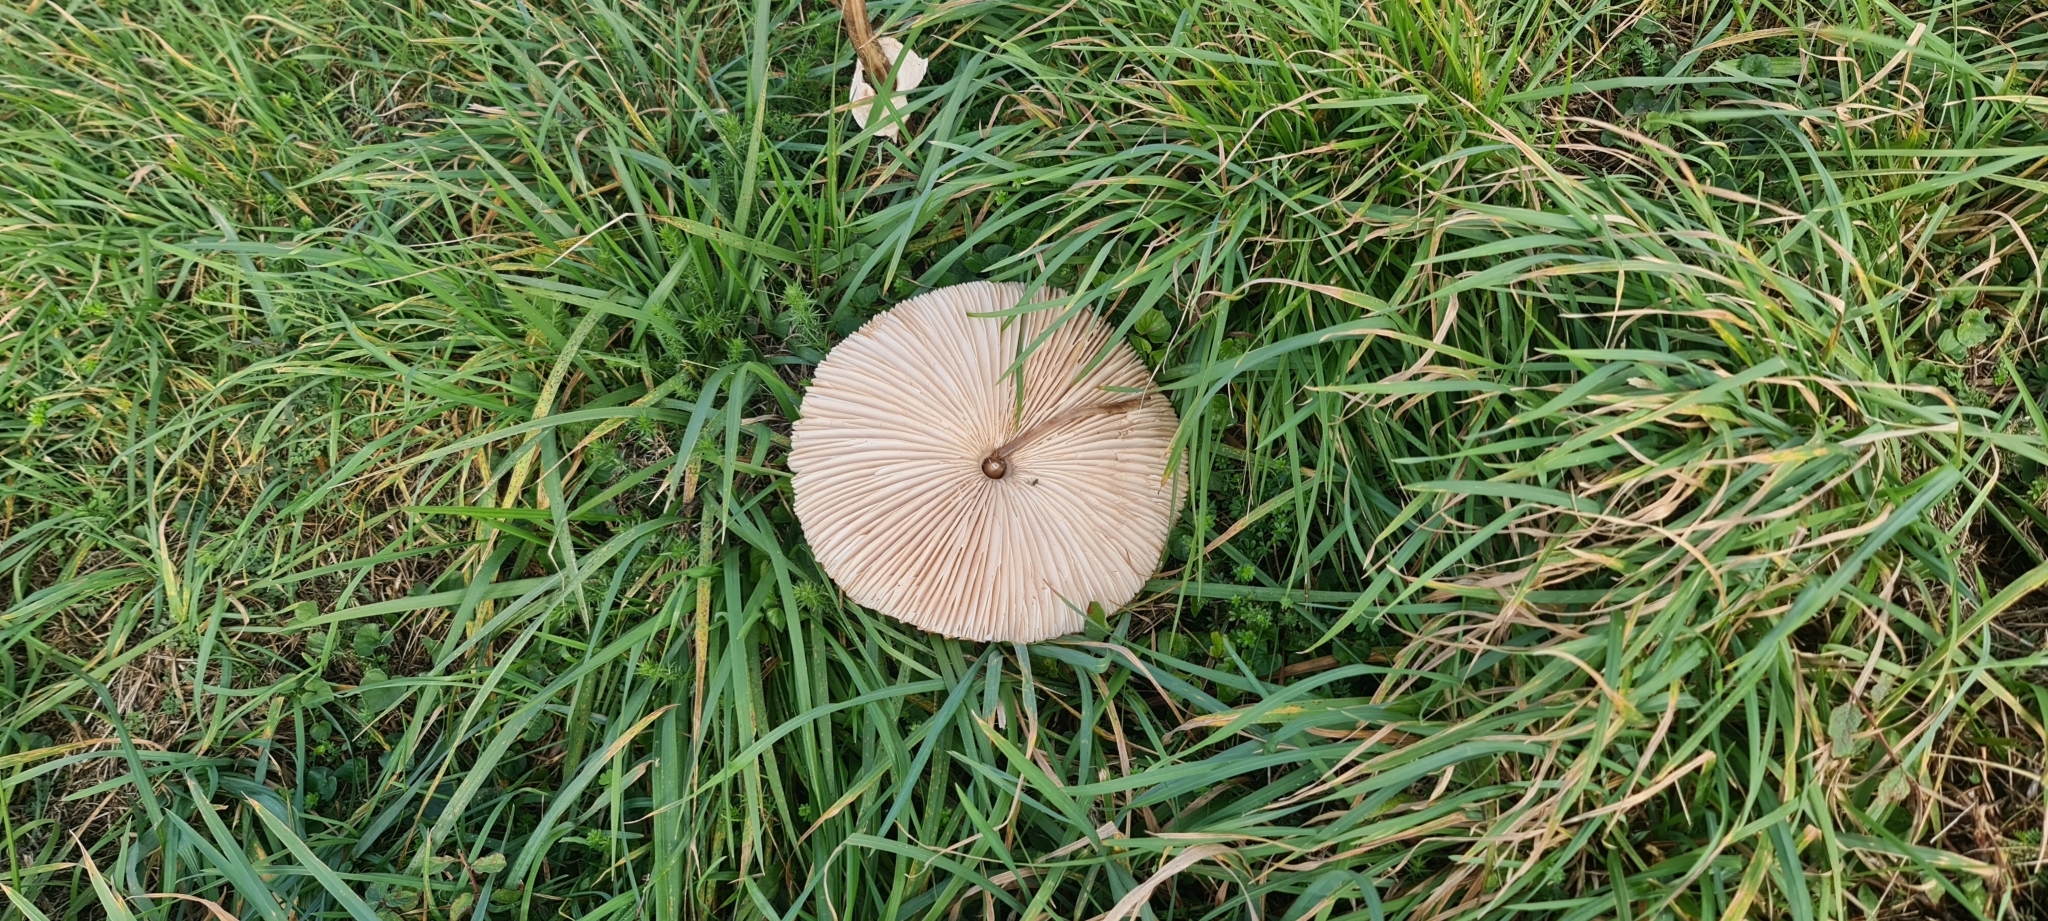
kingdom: Fungi
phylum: Basidiomycota
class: Agaricomycetes
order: Agaricales
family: Agaricaceae
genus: Macrolepiota
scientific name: Macrolepiota procera
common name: Parasol
